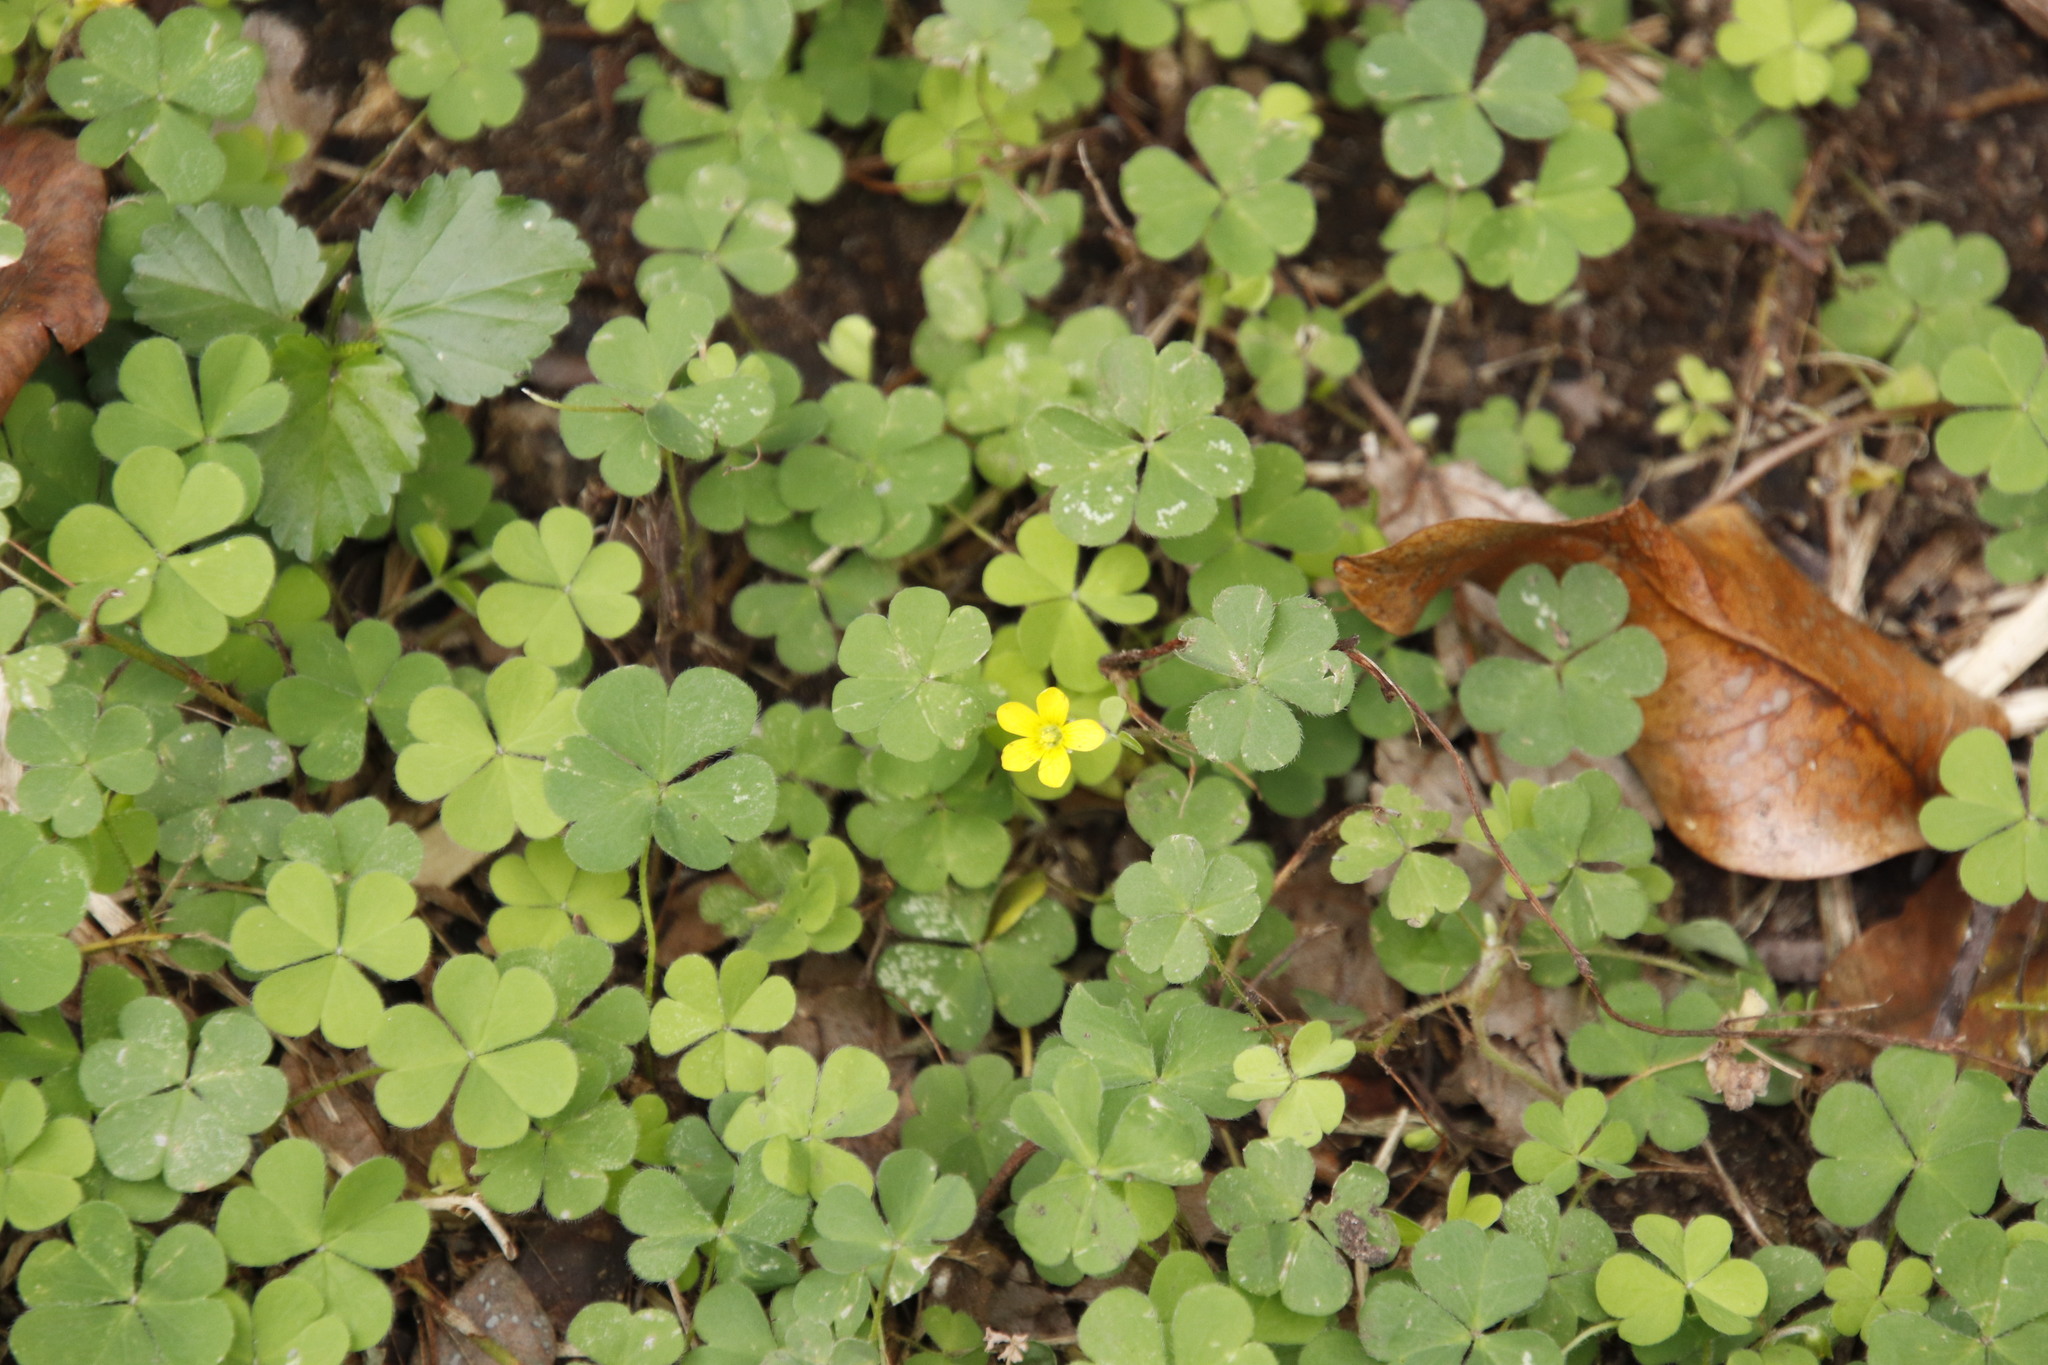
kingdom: Plantae
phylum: Tracheophyta
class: Magnoliopsida
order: Oxalidales
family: Oxalidaceae
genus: Oxalis
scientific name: Oxalis corniculata
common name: Procumbent yellow-sorrel
